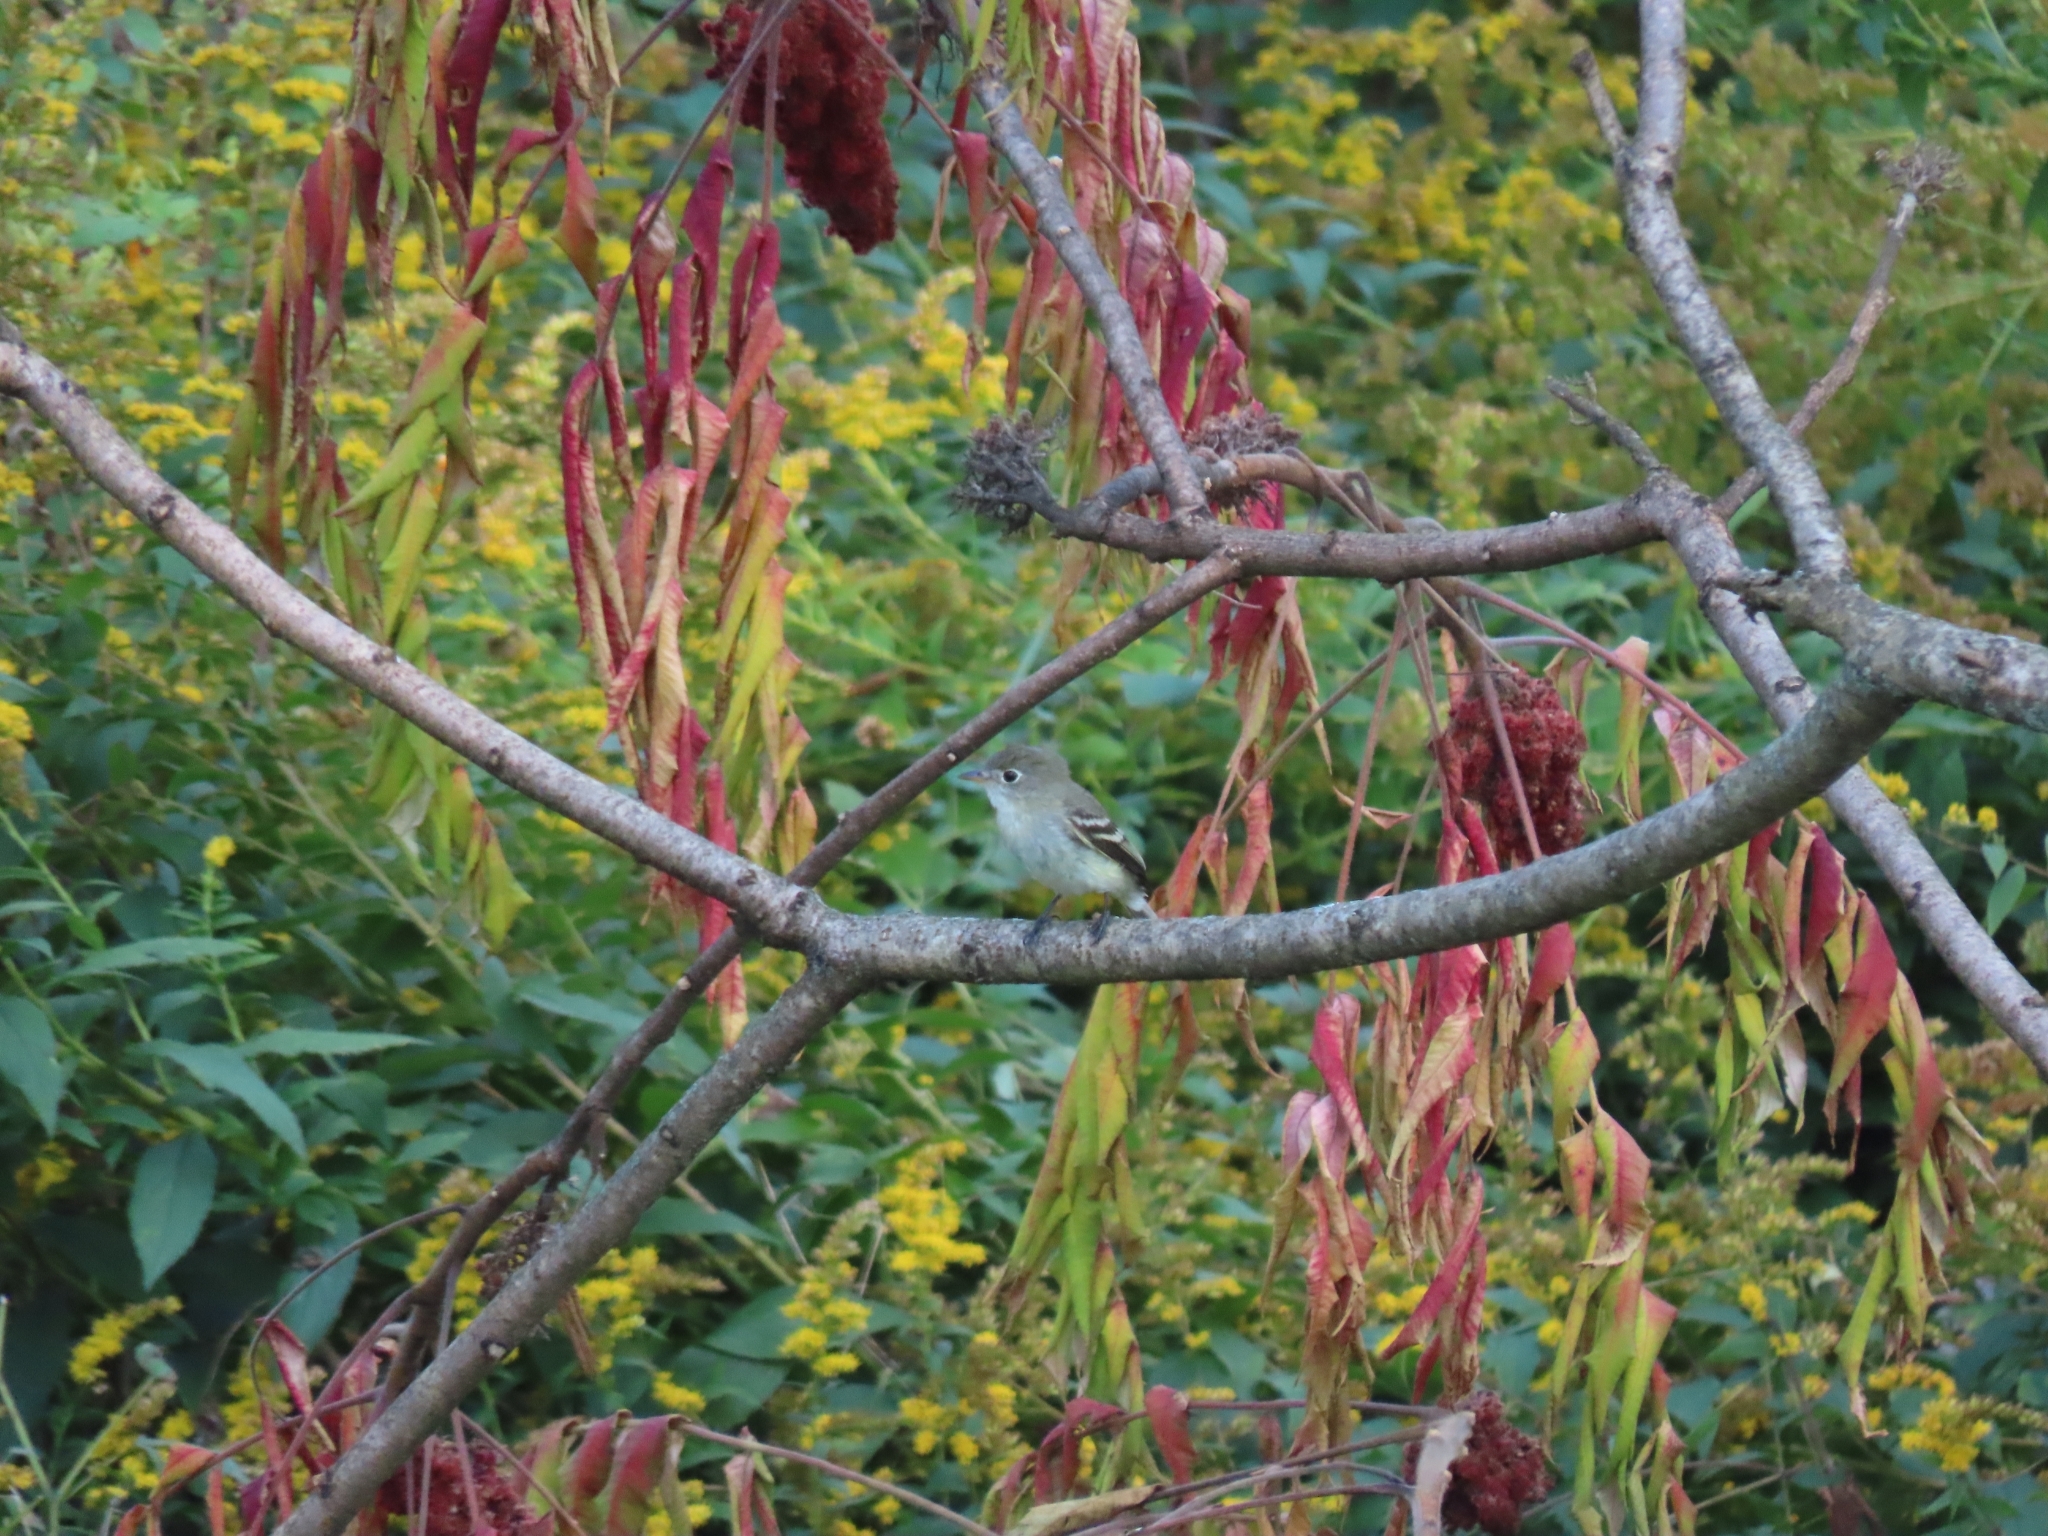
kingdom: Animalia
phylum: Chordata
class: Aves
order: Passeriformes
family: Tyrannidae
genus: Empidonax
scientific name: Empidonax minimus
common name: Least flycatcher
